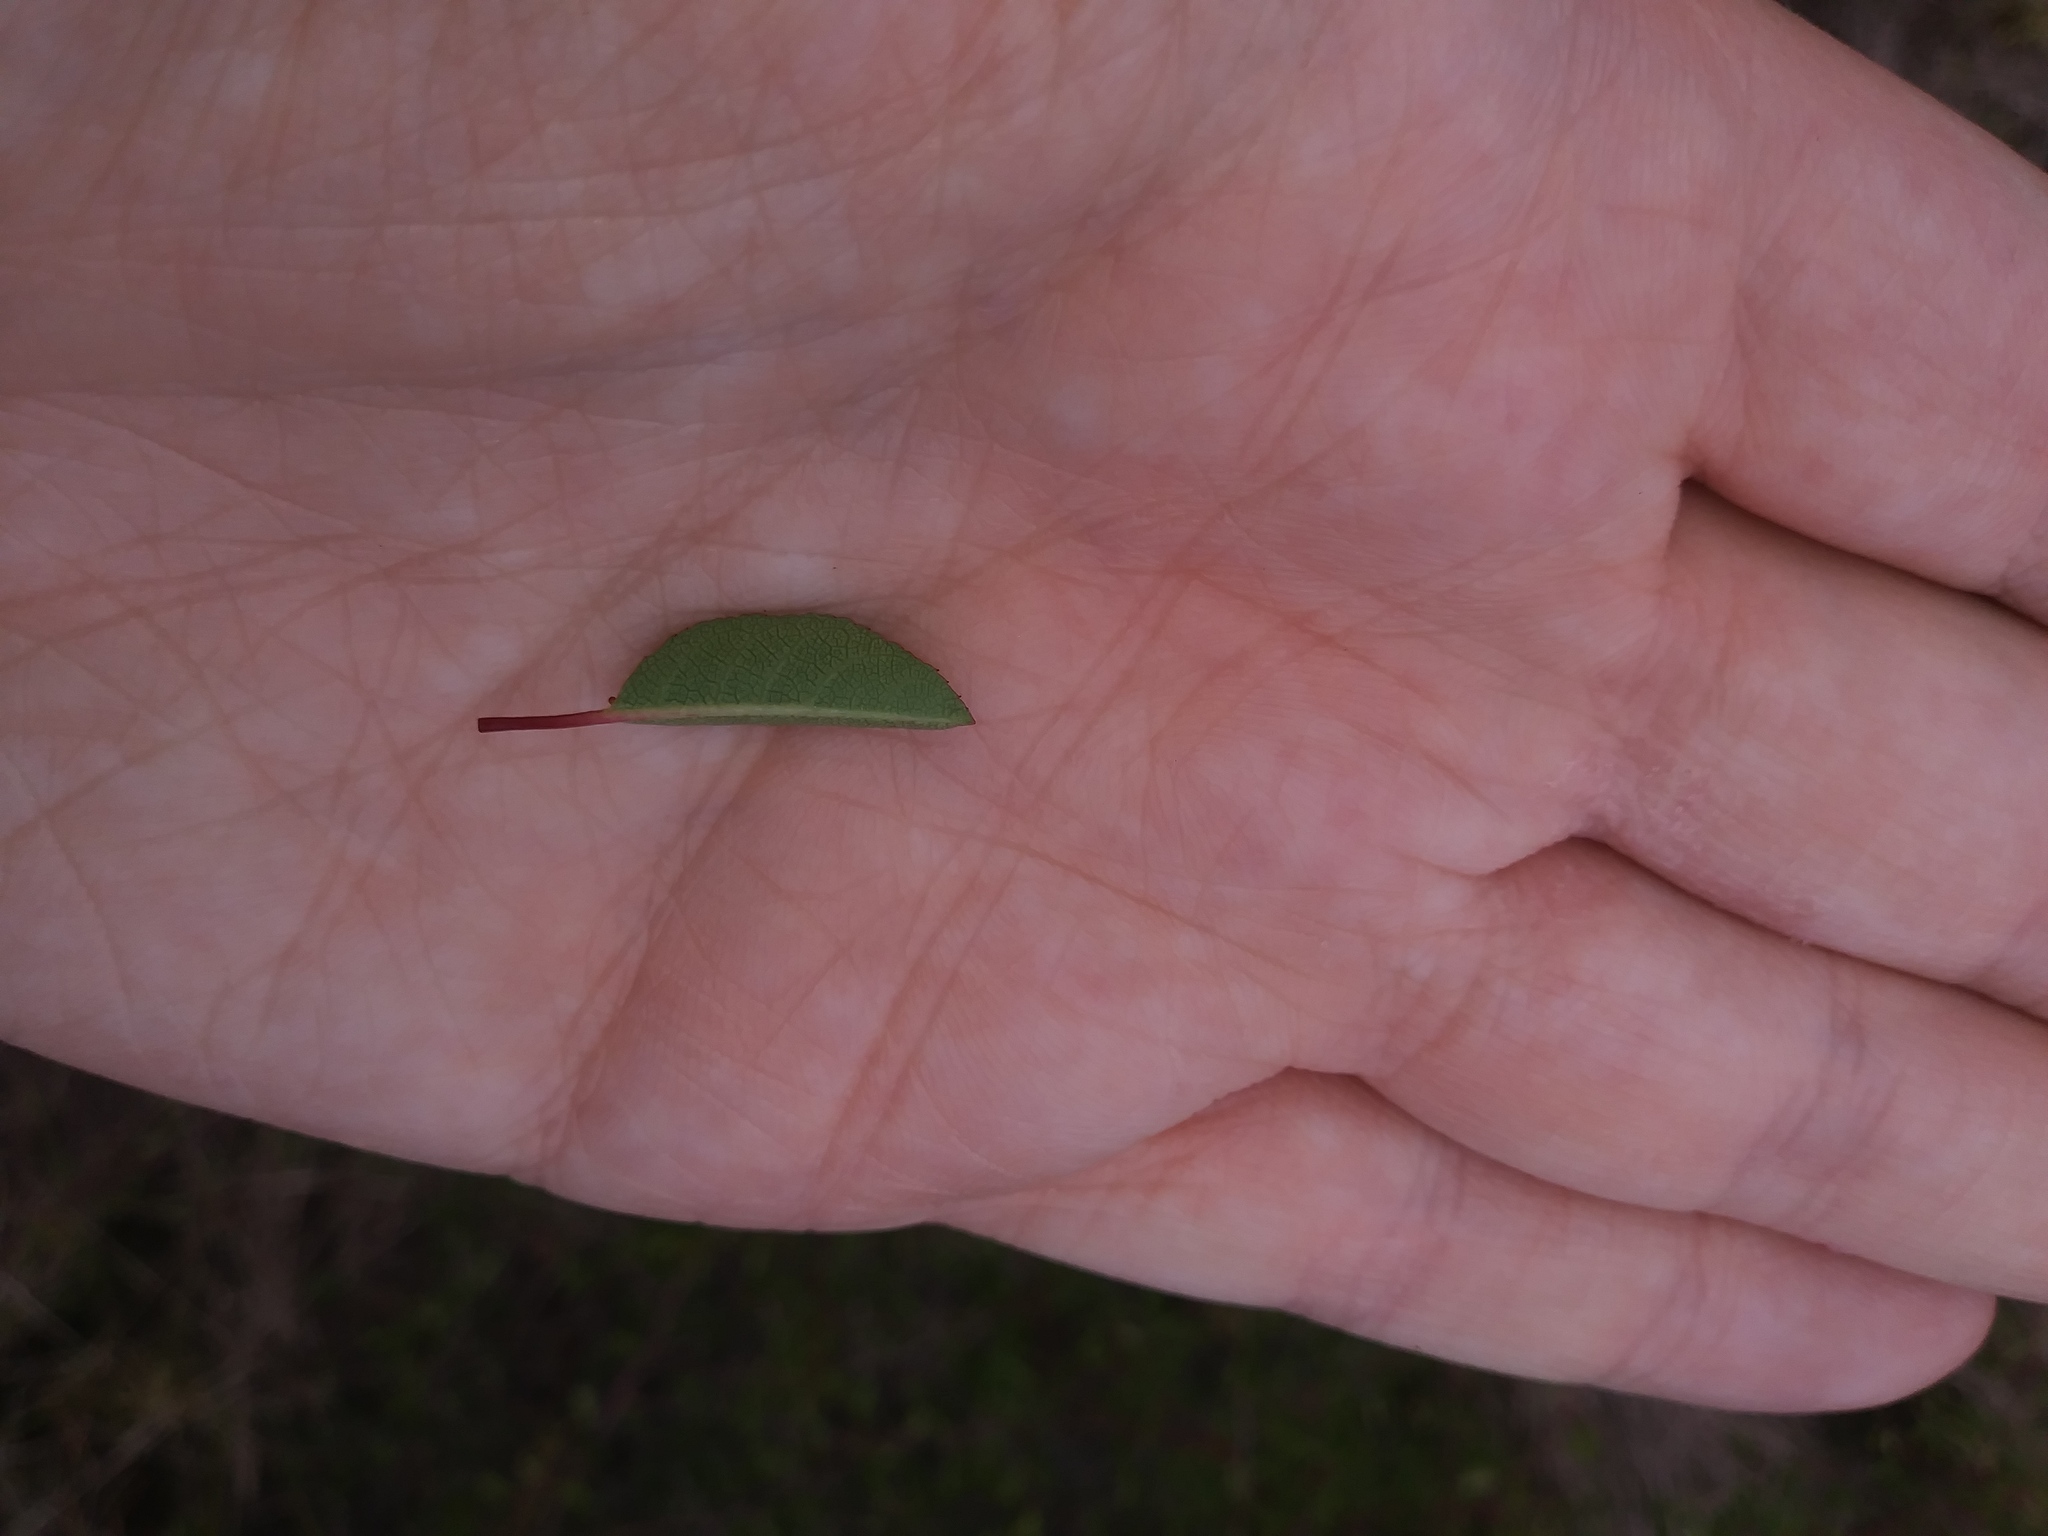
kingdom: Plantae
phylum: Tracheophyta
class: Magnoliopsida
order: Rosales
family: Rosaceae
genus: Prunus
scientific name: Prunus geniculata
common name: Scrub plum
